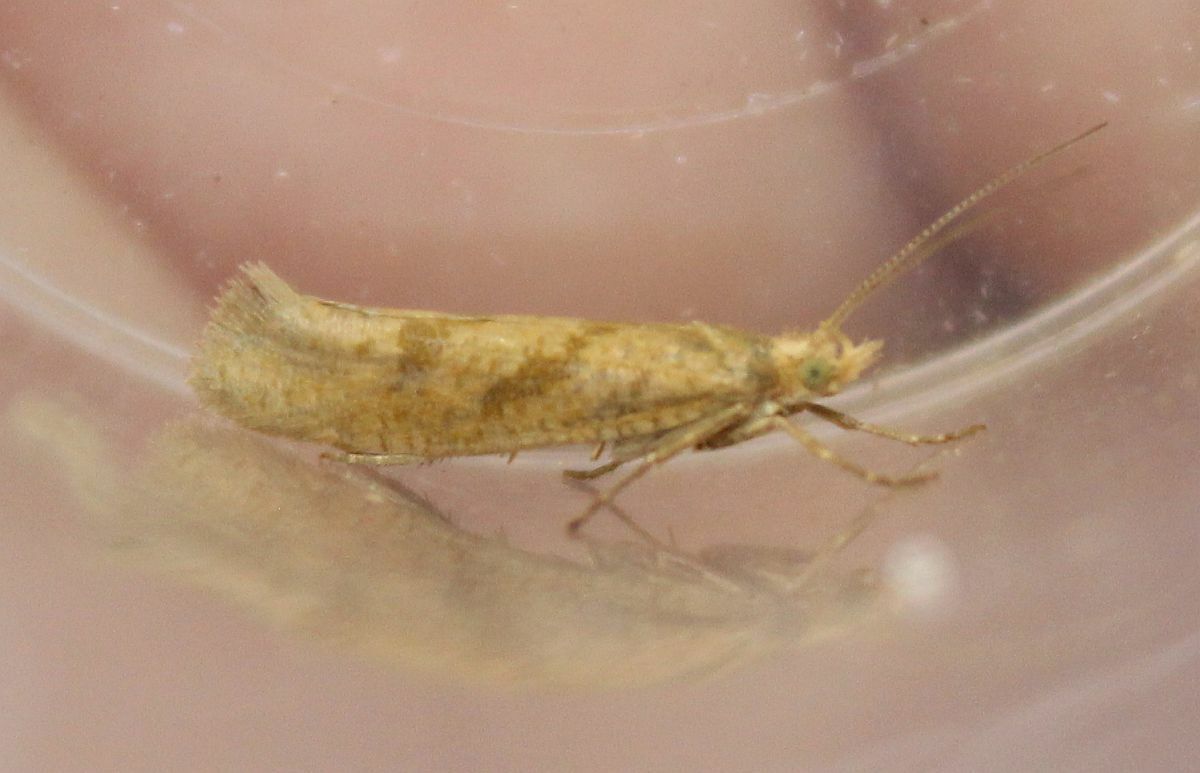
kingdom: Animalia
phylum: Arthropoda
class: Insecta
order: Lepidoptera
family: Plutellidae
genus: Ypsolophus
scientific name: Ypsolophus sylvella
